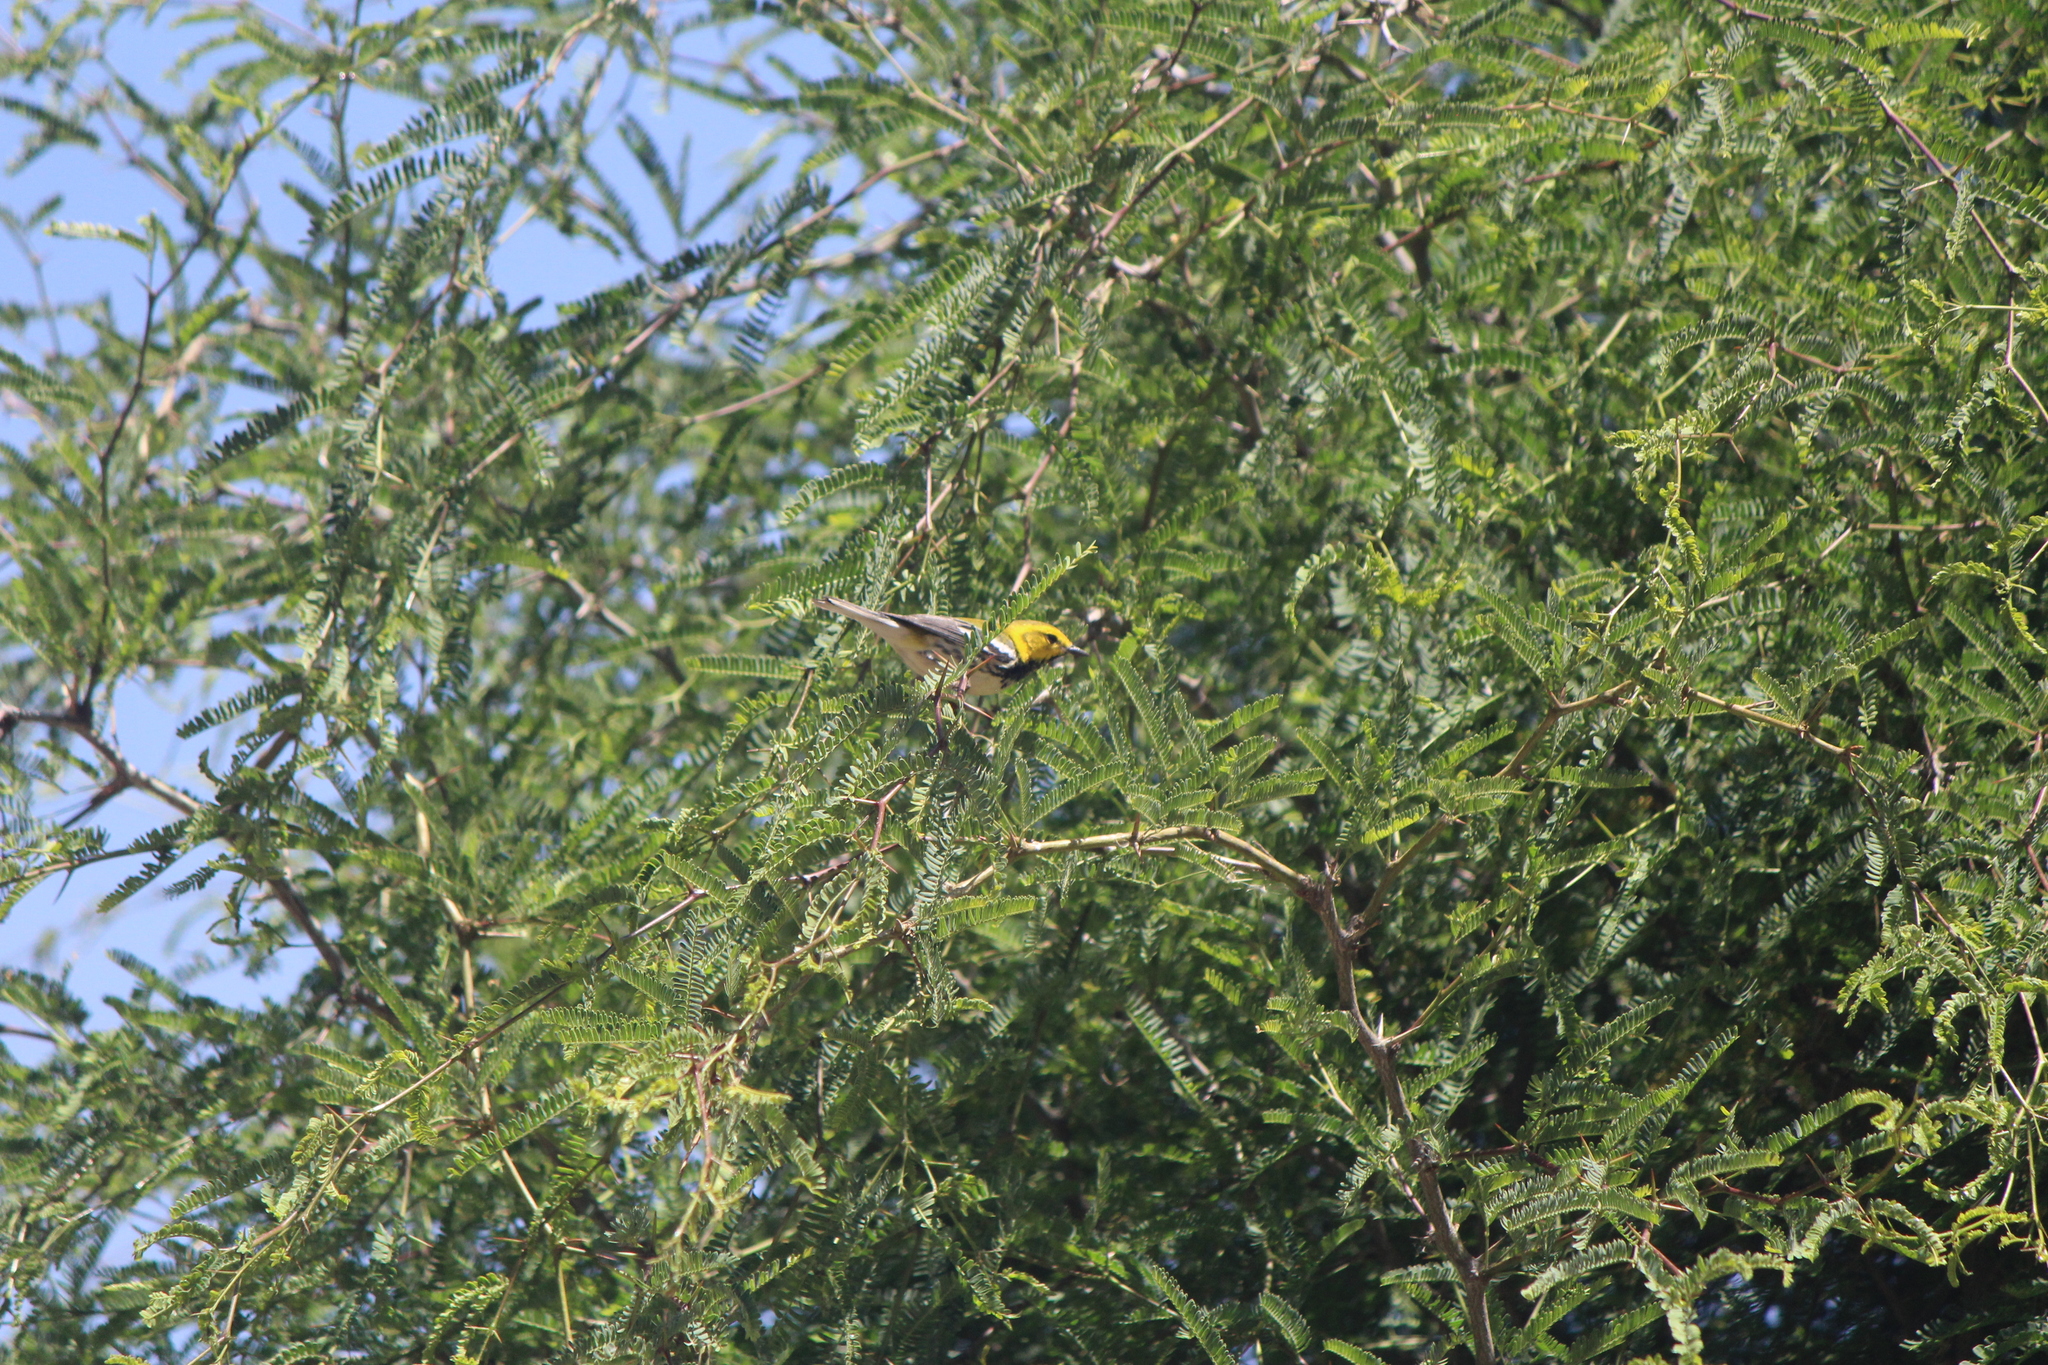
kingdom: Animalia
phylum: Chordata
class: Aves
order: Passeriformes
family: Parulidae
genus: Setophaga
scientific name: Setophaga virens
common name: Black-throated green warbler
